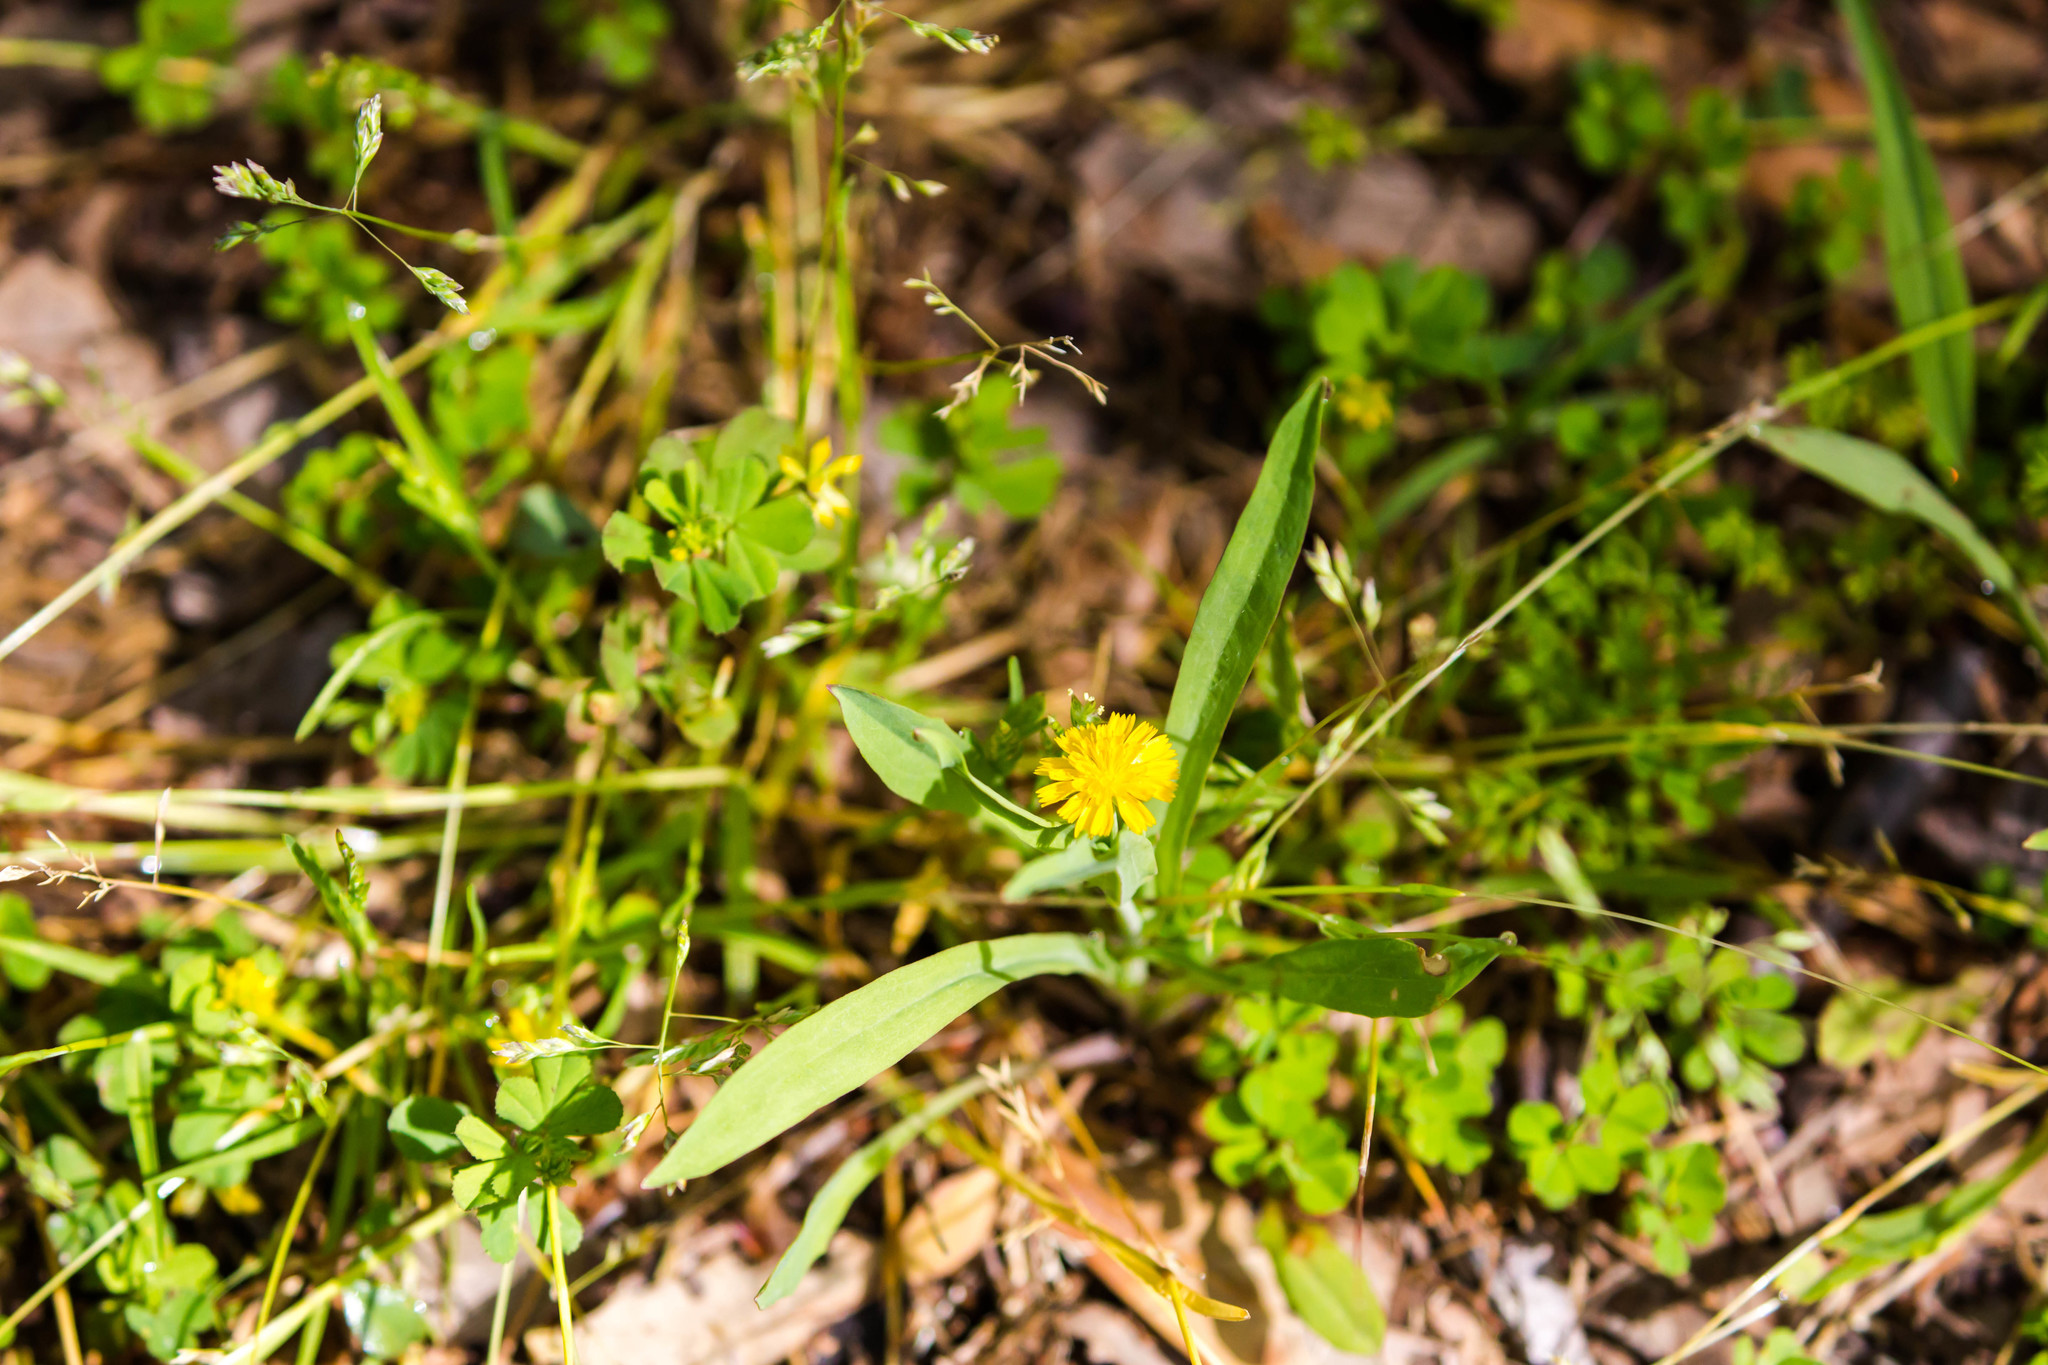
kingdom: Plantae
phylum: Tracheophyta
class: Magnoliopsida
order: Asterales
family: Asteraceae
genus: Krigia
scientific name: Krigia cespitosa
